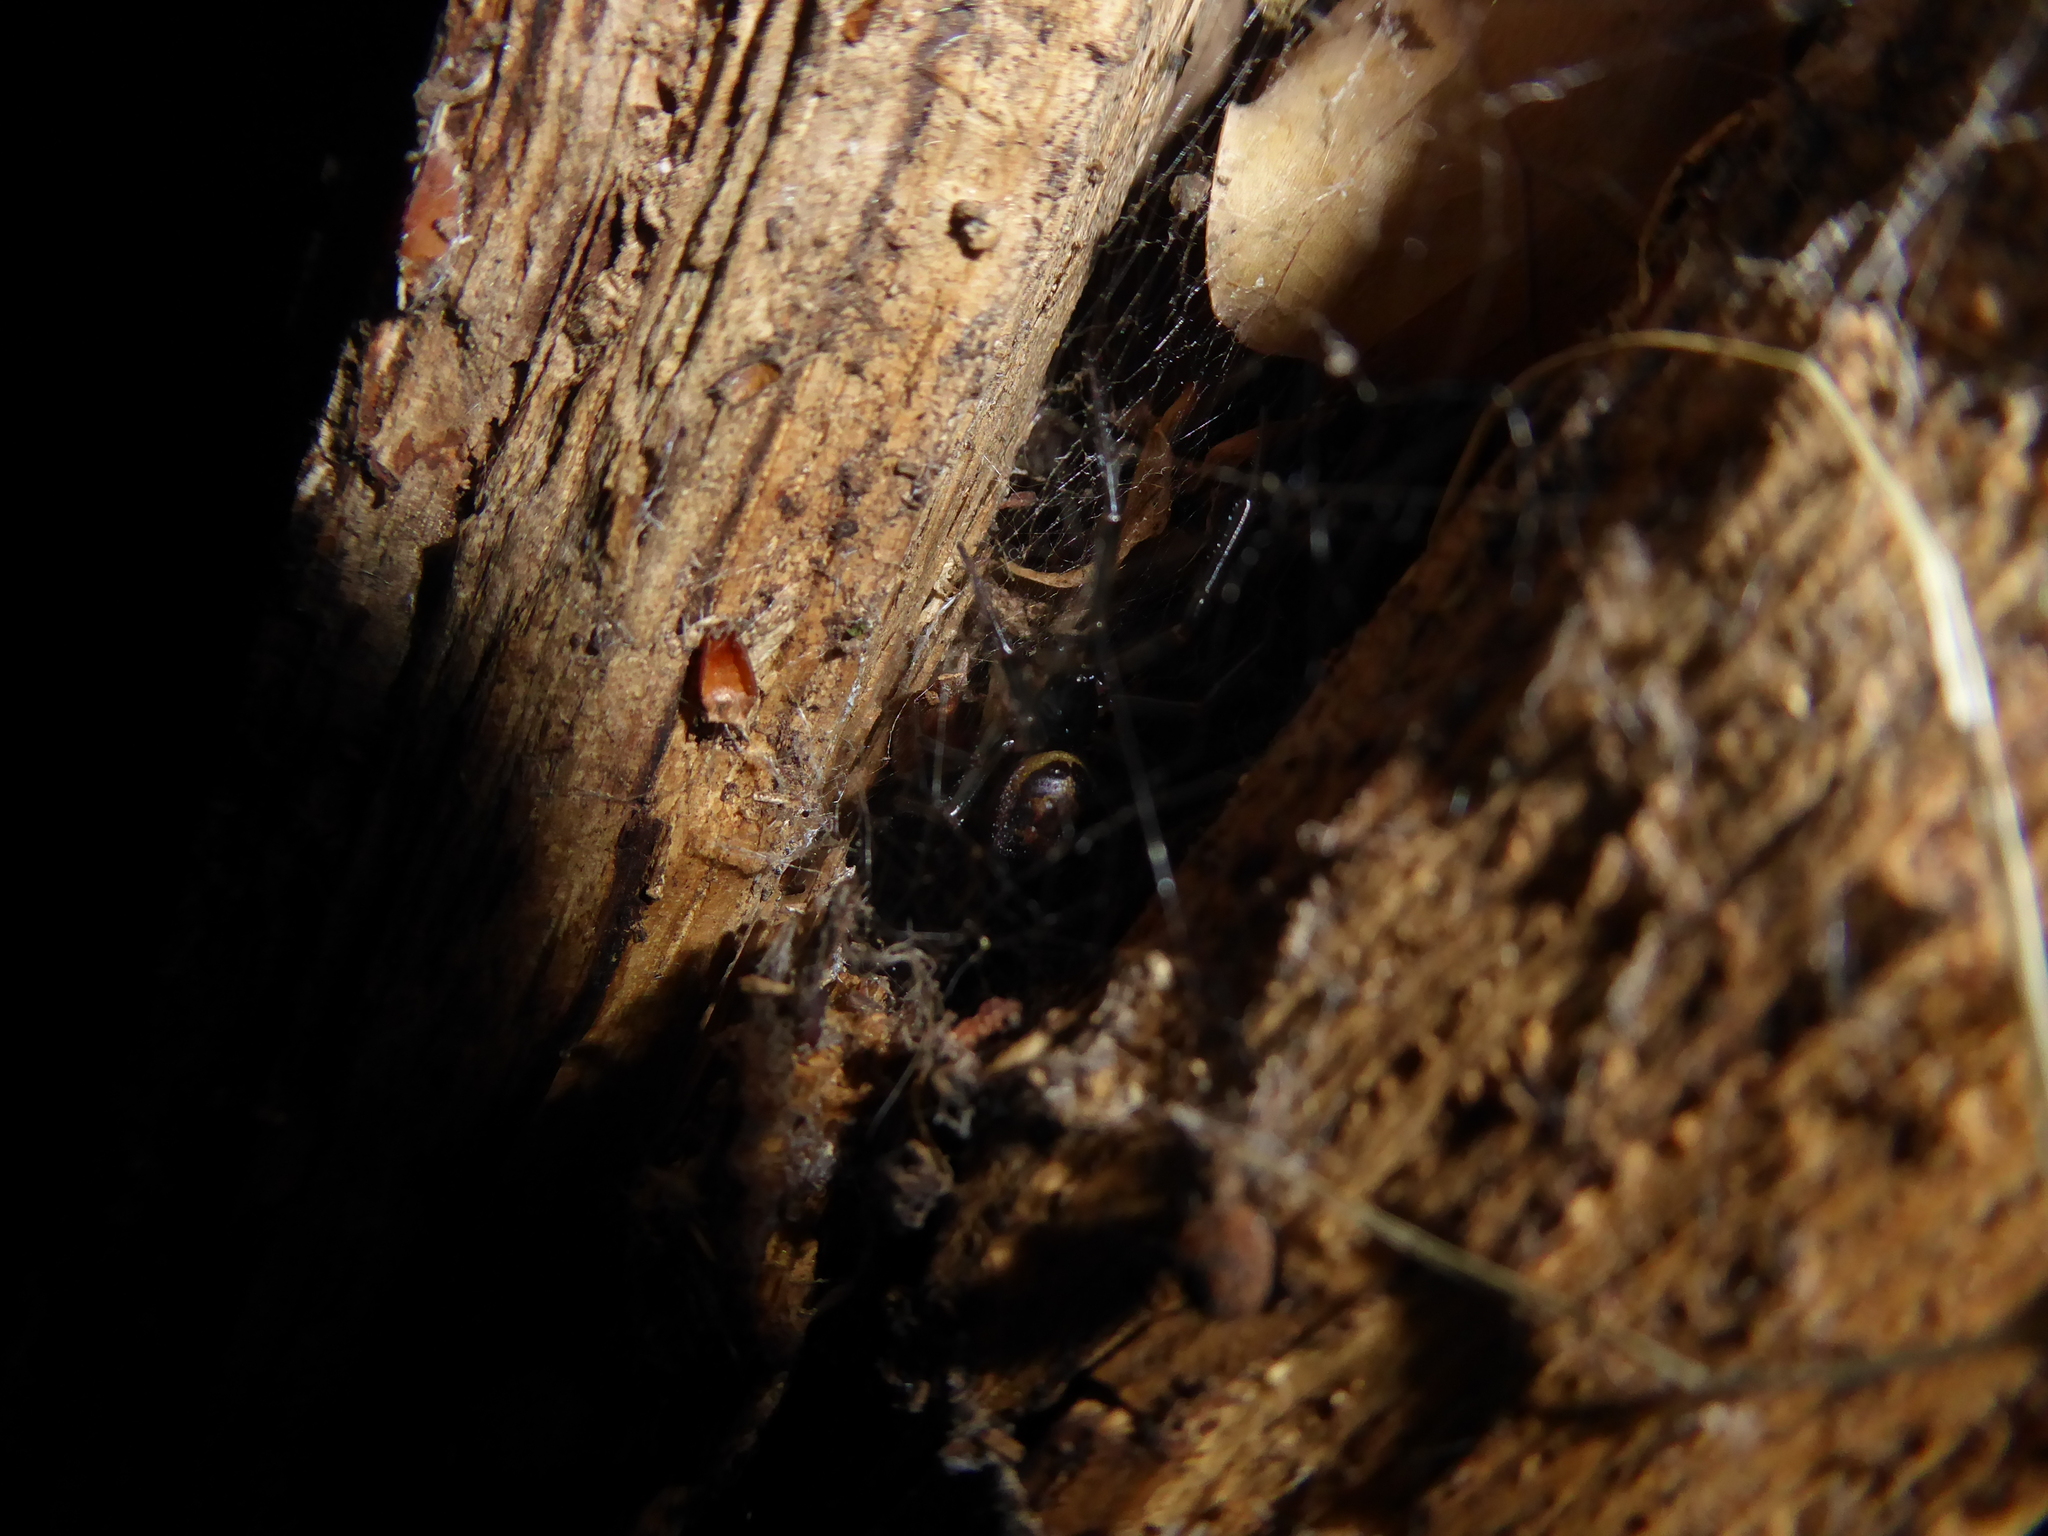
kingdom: Animalia
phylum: Arthropoda
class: Arachnida
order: Araneae
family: Theridiidae
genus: Steatoda
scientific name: Steatoda nobilis
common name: Cobweb weaver
